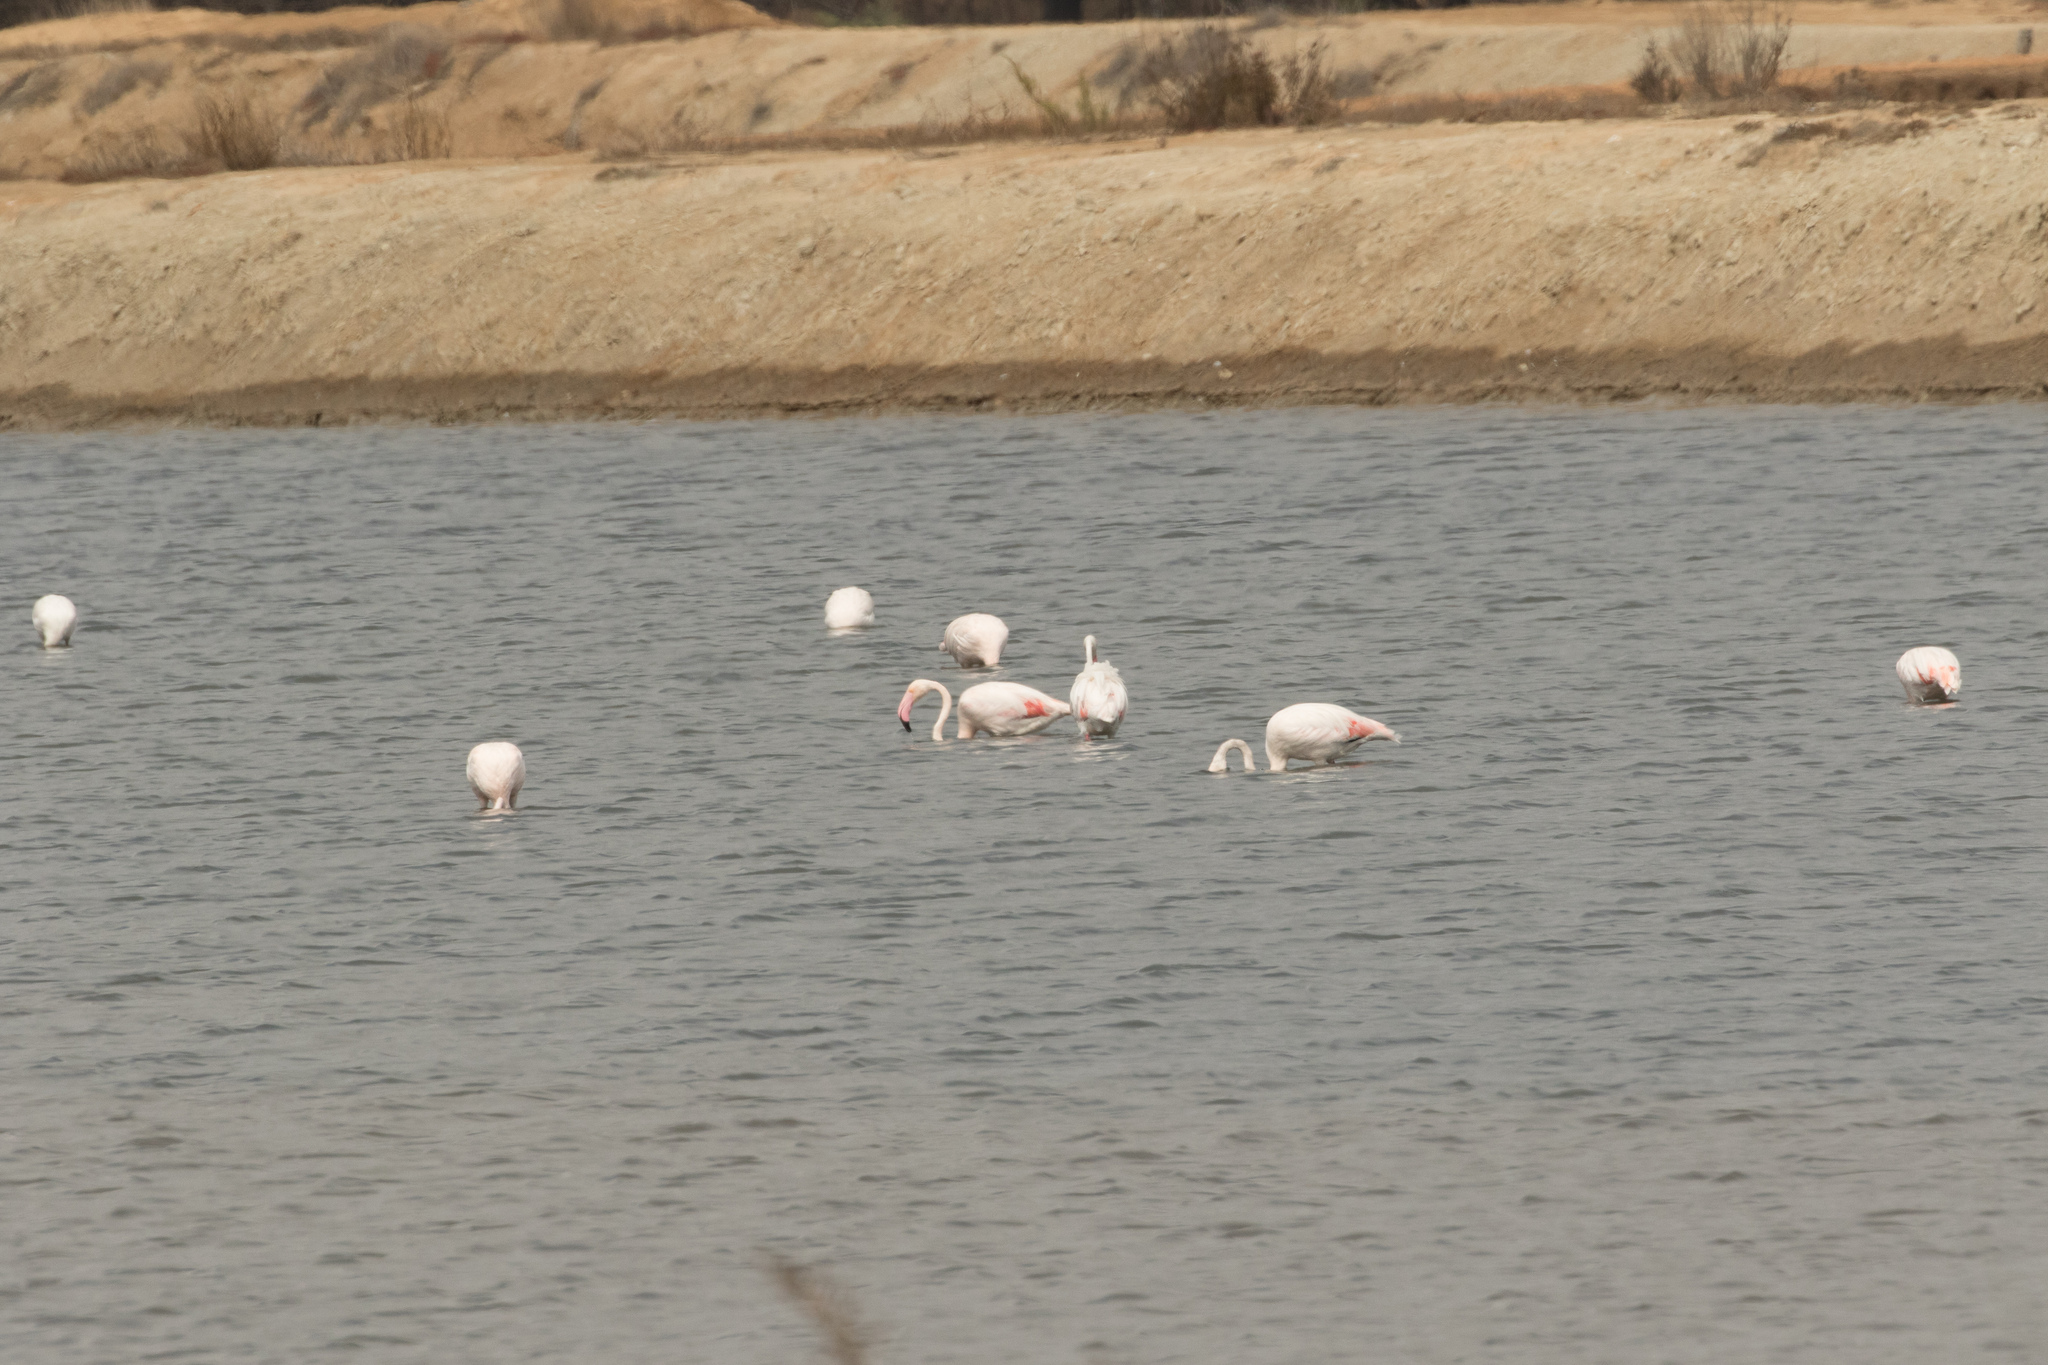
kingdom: Animalia
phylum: Chordata
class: Aves
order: Phoenicopteriformes
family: Phoenicopteridae
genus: Phoenicopterus
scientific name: Phoenicopterus roseus
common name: Greater flamingo
